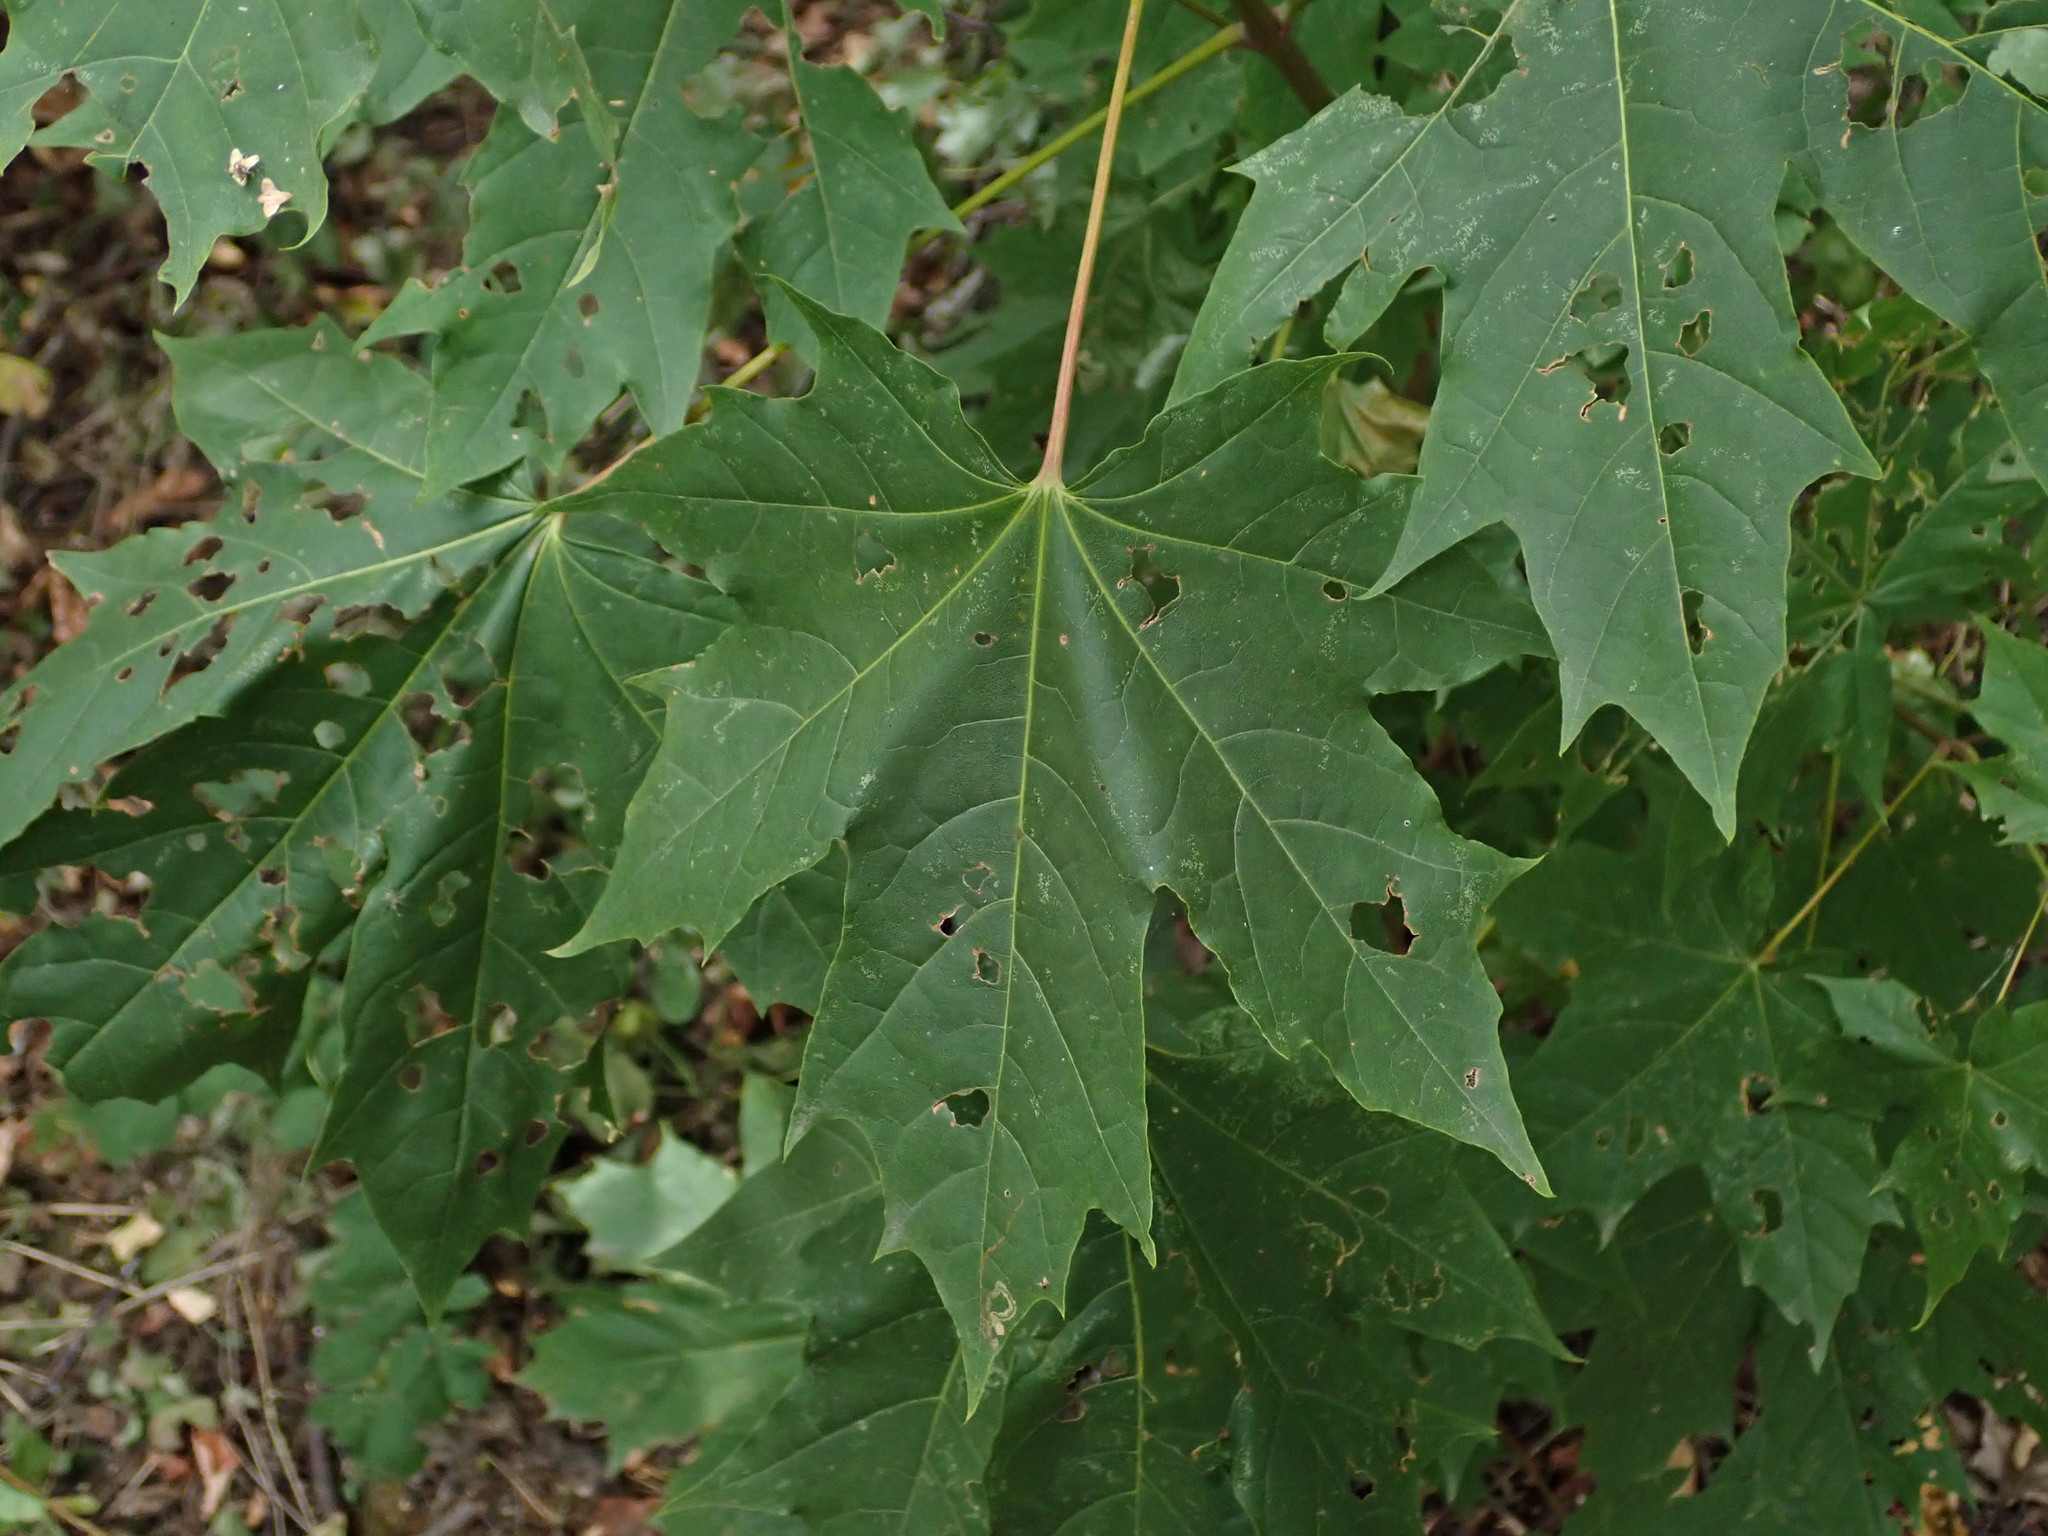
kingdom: Plantae
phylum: Tracheophyta
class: Magnoliopsida
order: Sapindales
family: Sapindaceae
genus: Acer
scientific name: Acer platanoides
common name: Norway maple
